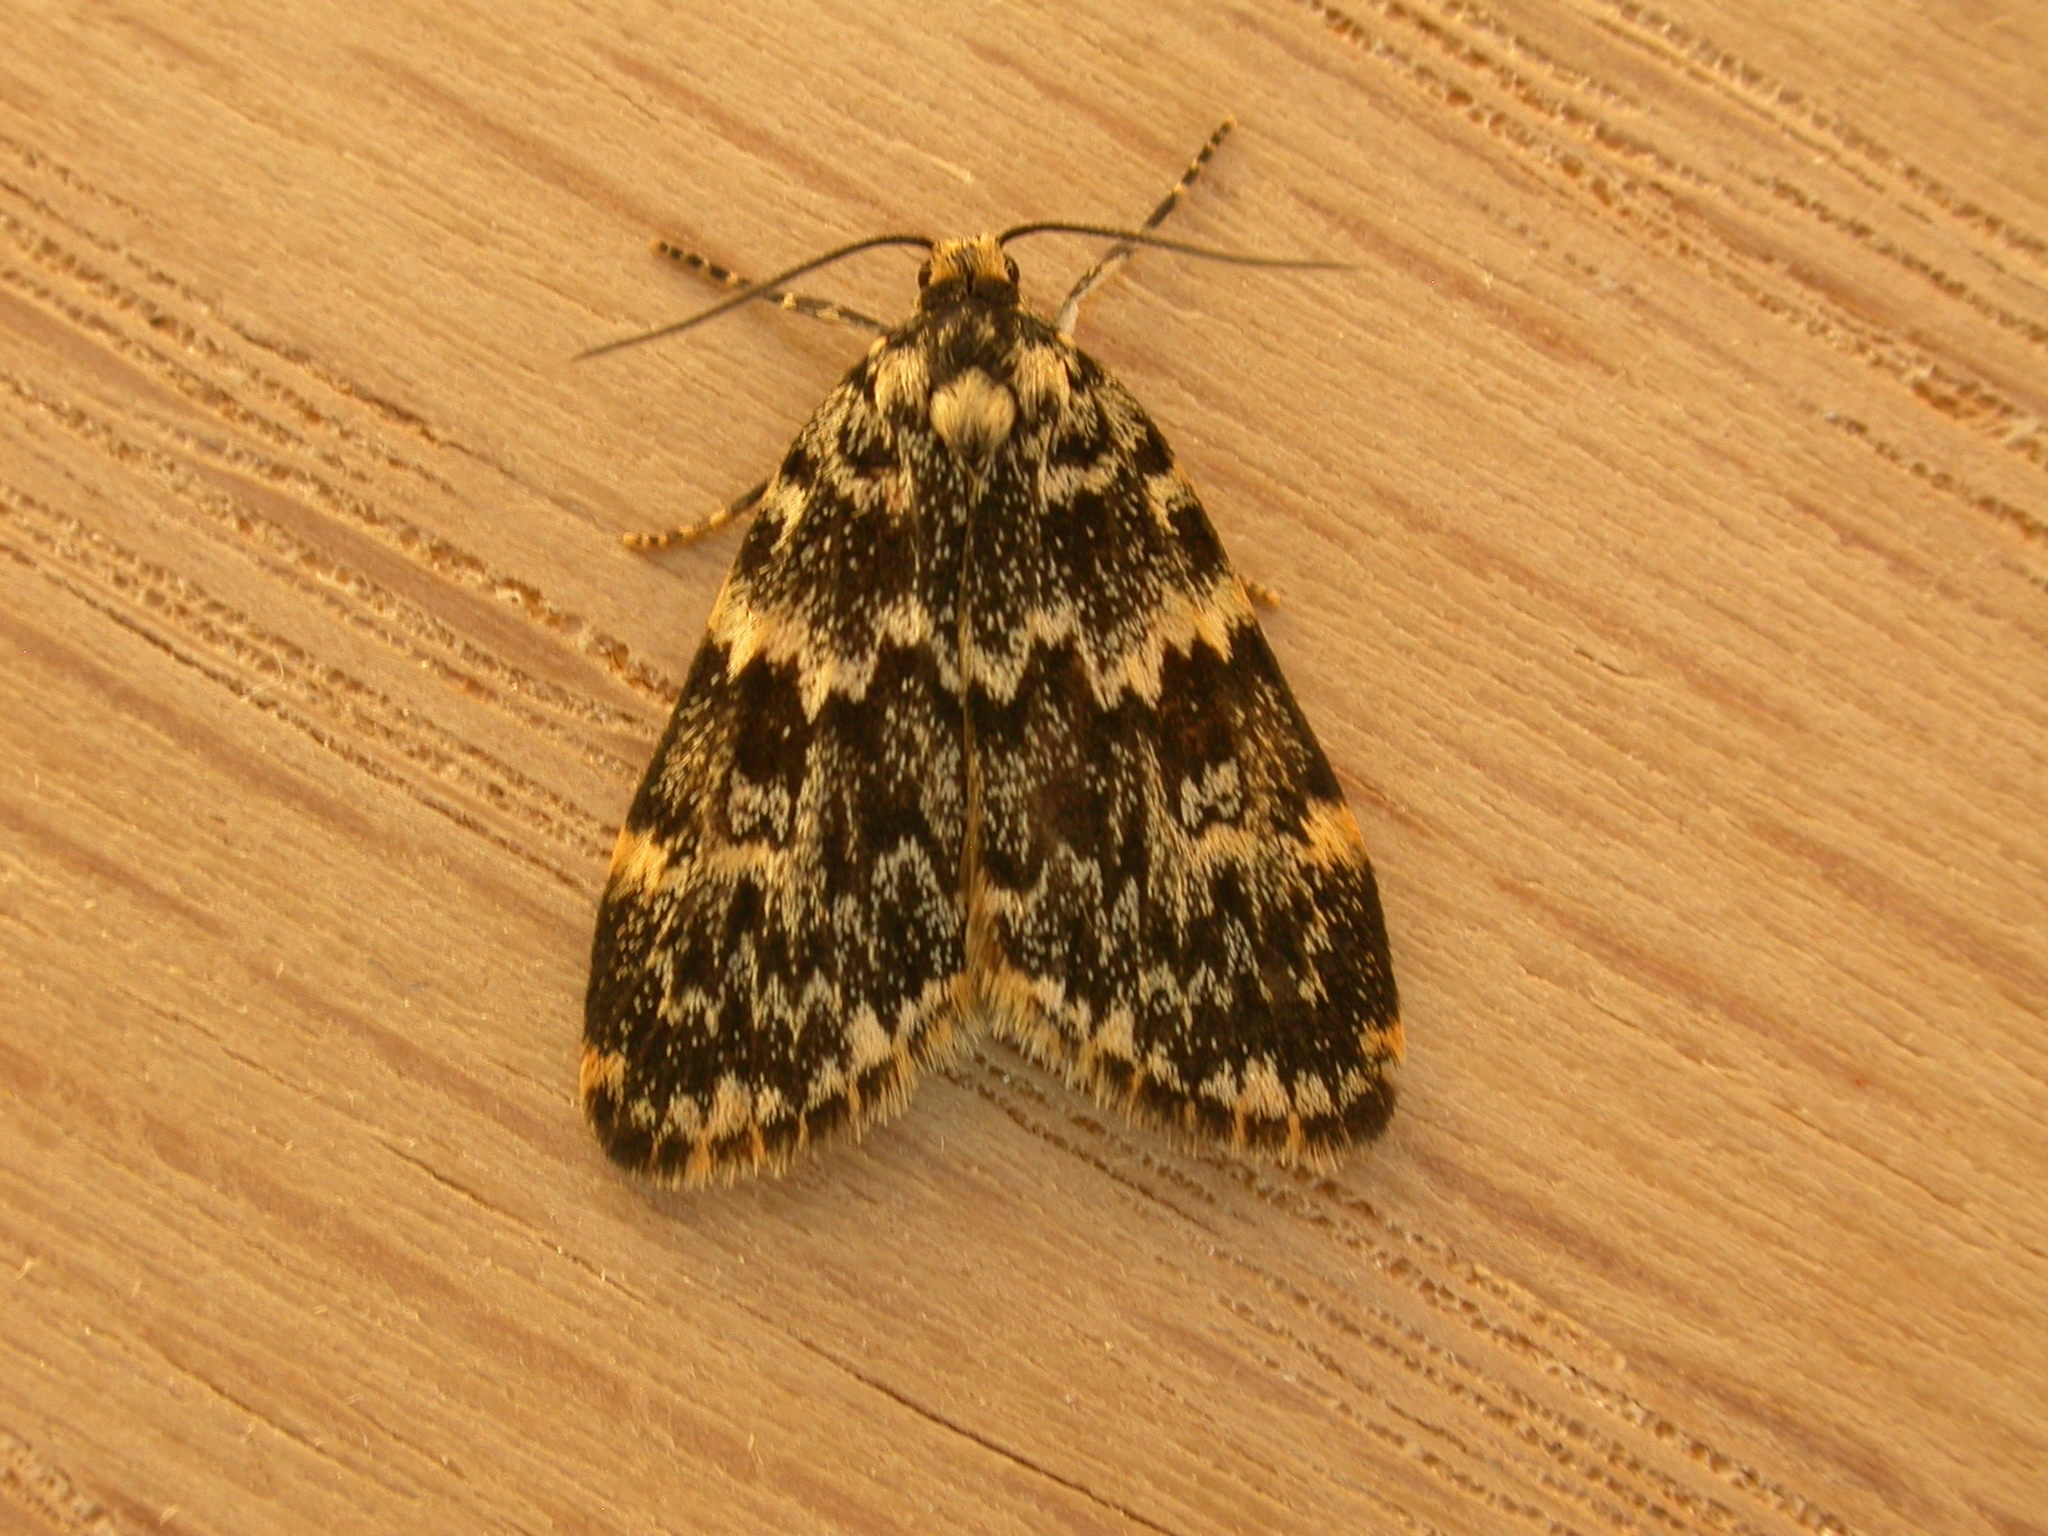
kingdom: Animalia
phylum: Arthropoda
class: Insecta
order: Lepidoptera
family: Erebidae
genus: Halone
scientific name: Halone coryphoea
